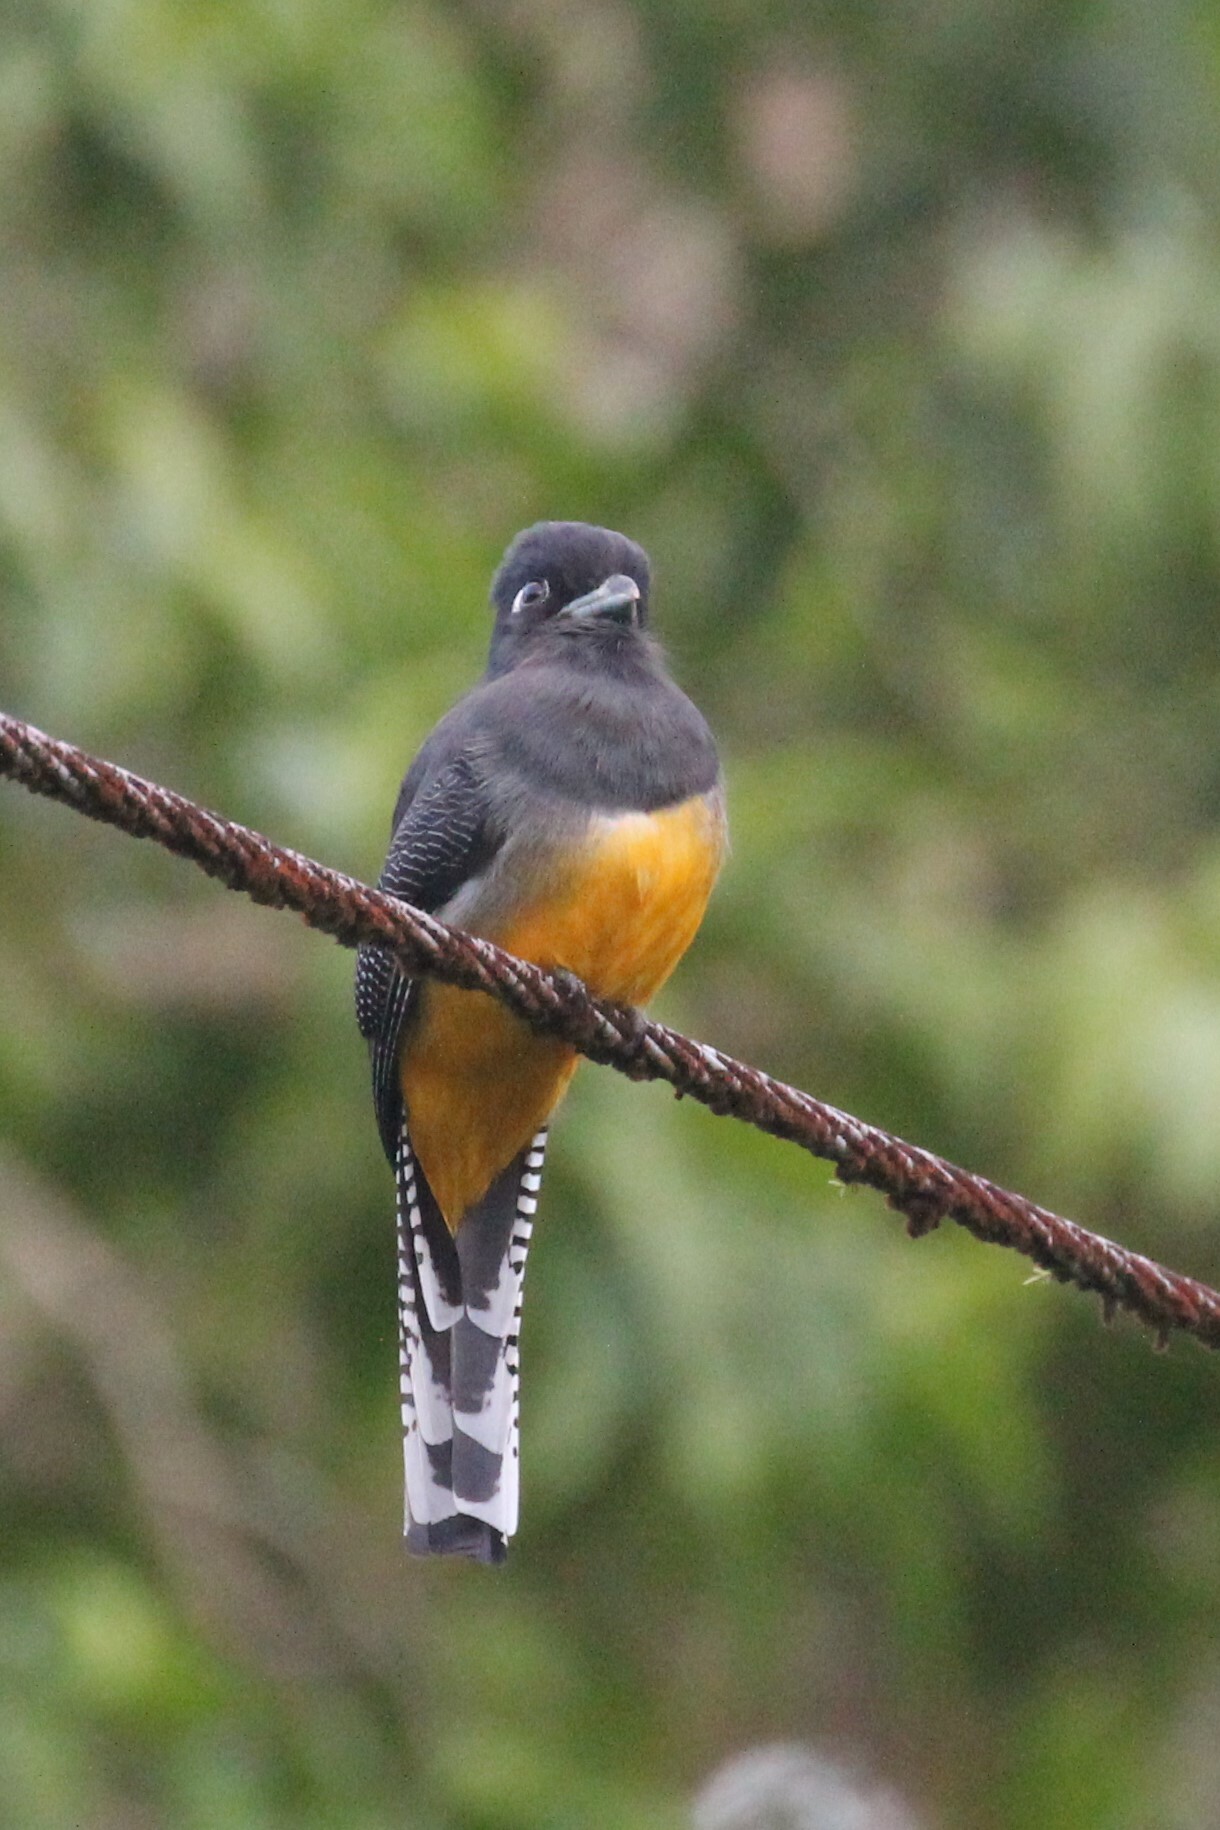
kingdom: Animalia
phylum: Chordata
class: Aves
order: Trogoniformes
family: Trogonidae
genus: Trogon
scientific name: Trogon caligatus
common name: Gartered trogon
